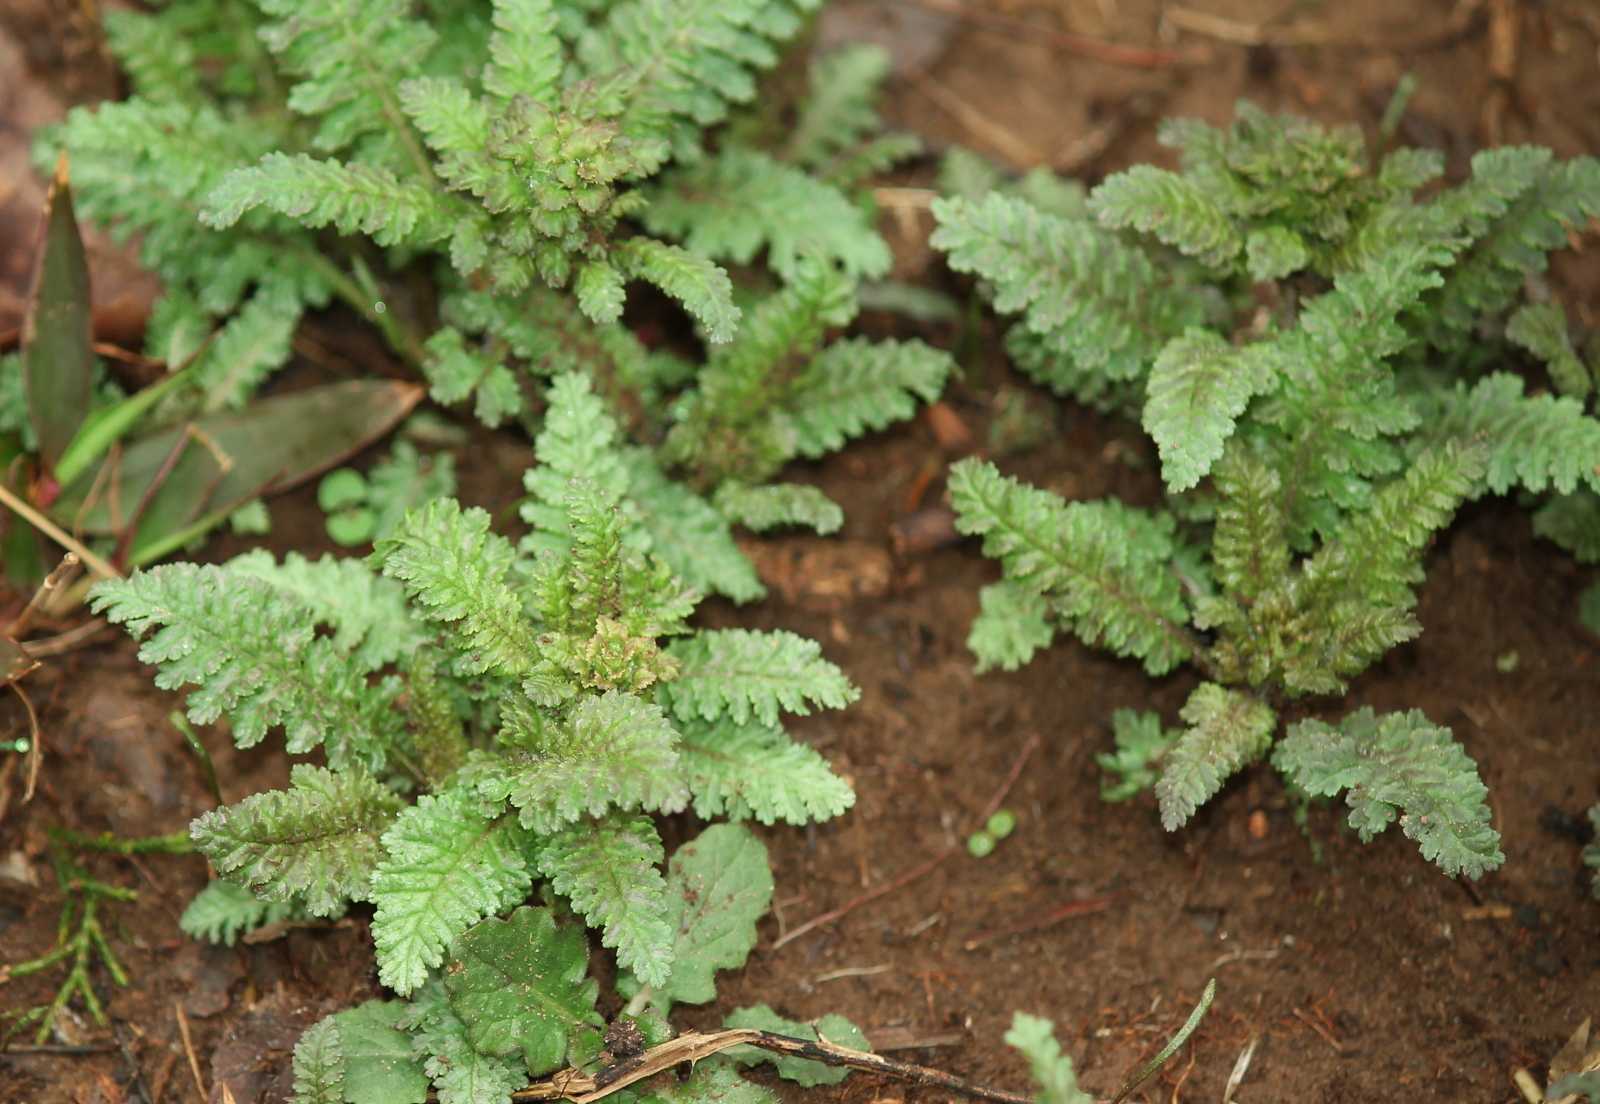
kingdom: Plantae
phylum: Tracheophyta
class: Magnoliopsida
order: Lamiales
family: Orobanchaceae
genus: Pedicularis
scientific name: Pedicularis canadensis
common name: Early lousewort
